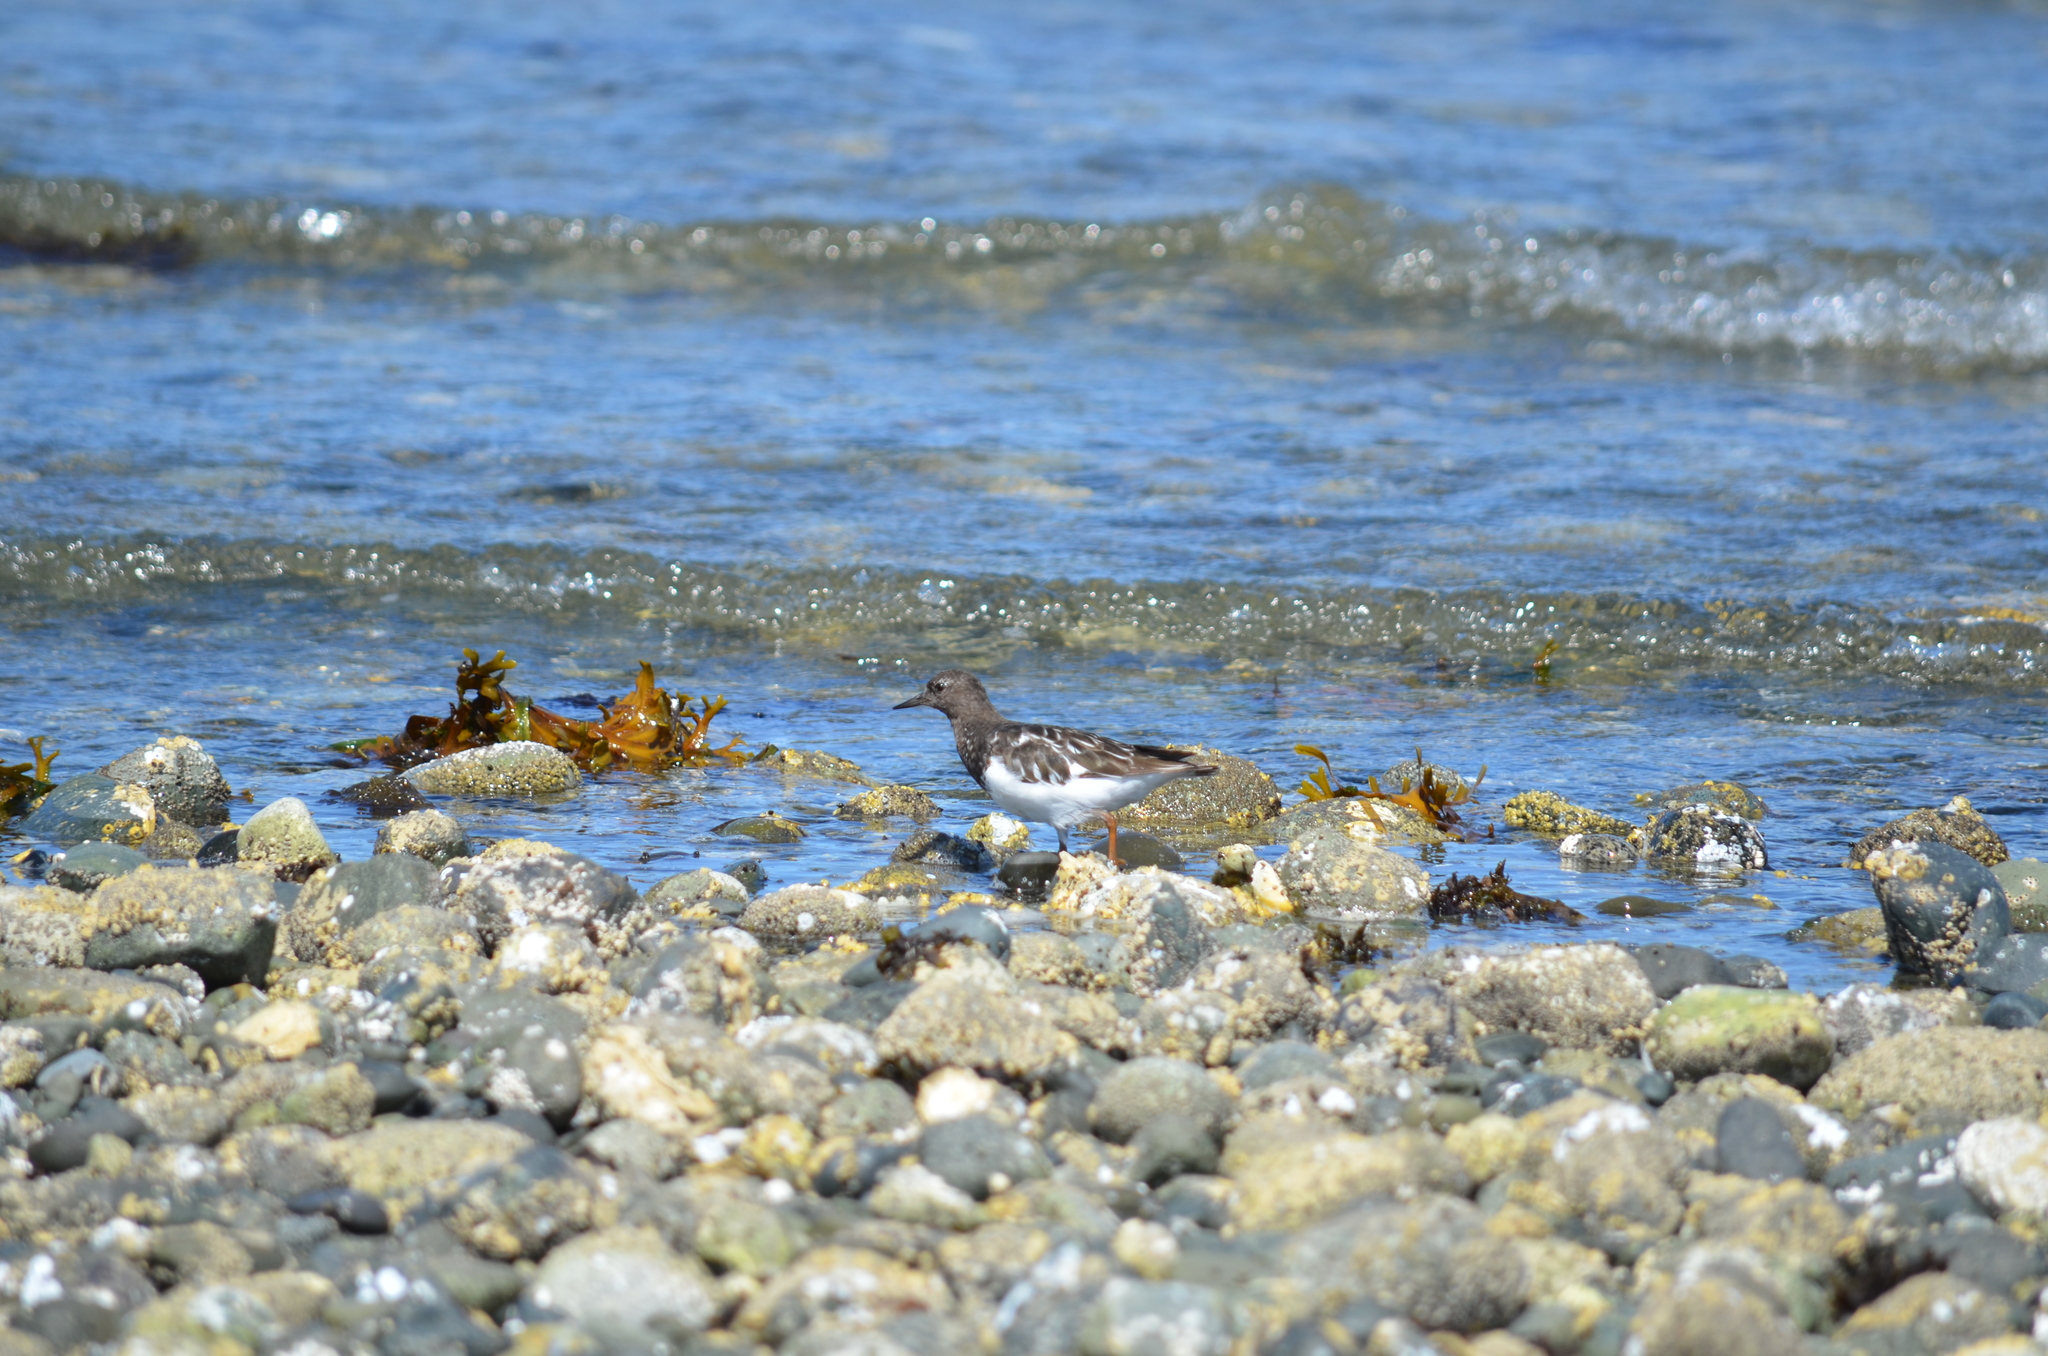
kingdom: Animalia
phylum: Chordata
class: Aves
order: Charadriiformes
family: Scolopacidae
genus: Arenaria
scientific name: Arenaria melanocephala
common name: Black turnstone
